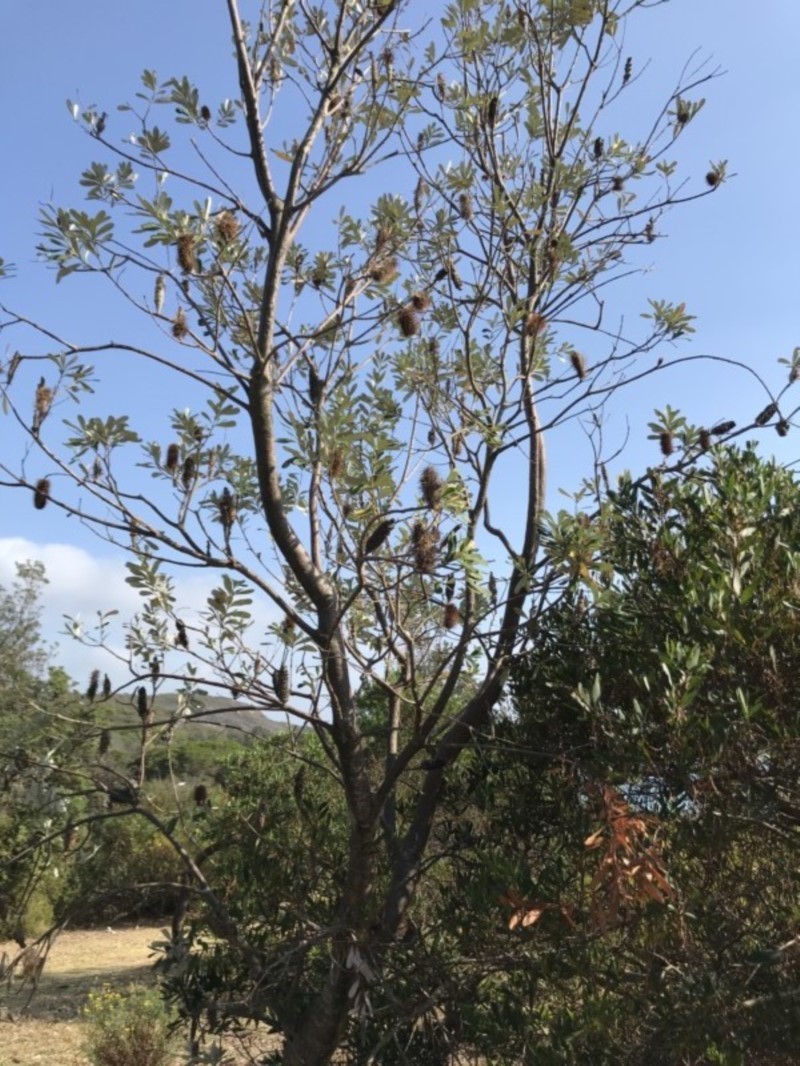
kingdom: Plantae
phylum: Tracheophyta
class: Magnoliopsida
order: Proteales
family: Proteaceae
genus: Banksia
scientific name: Banksia integrifolia
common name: White-honeysuckle
